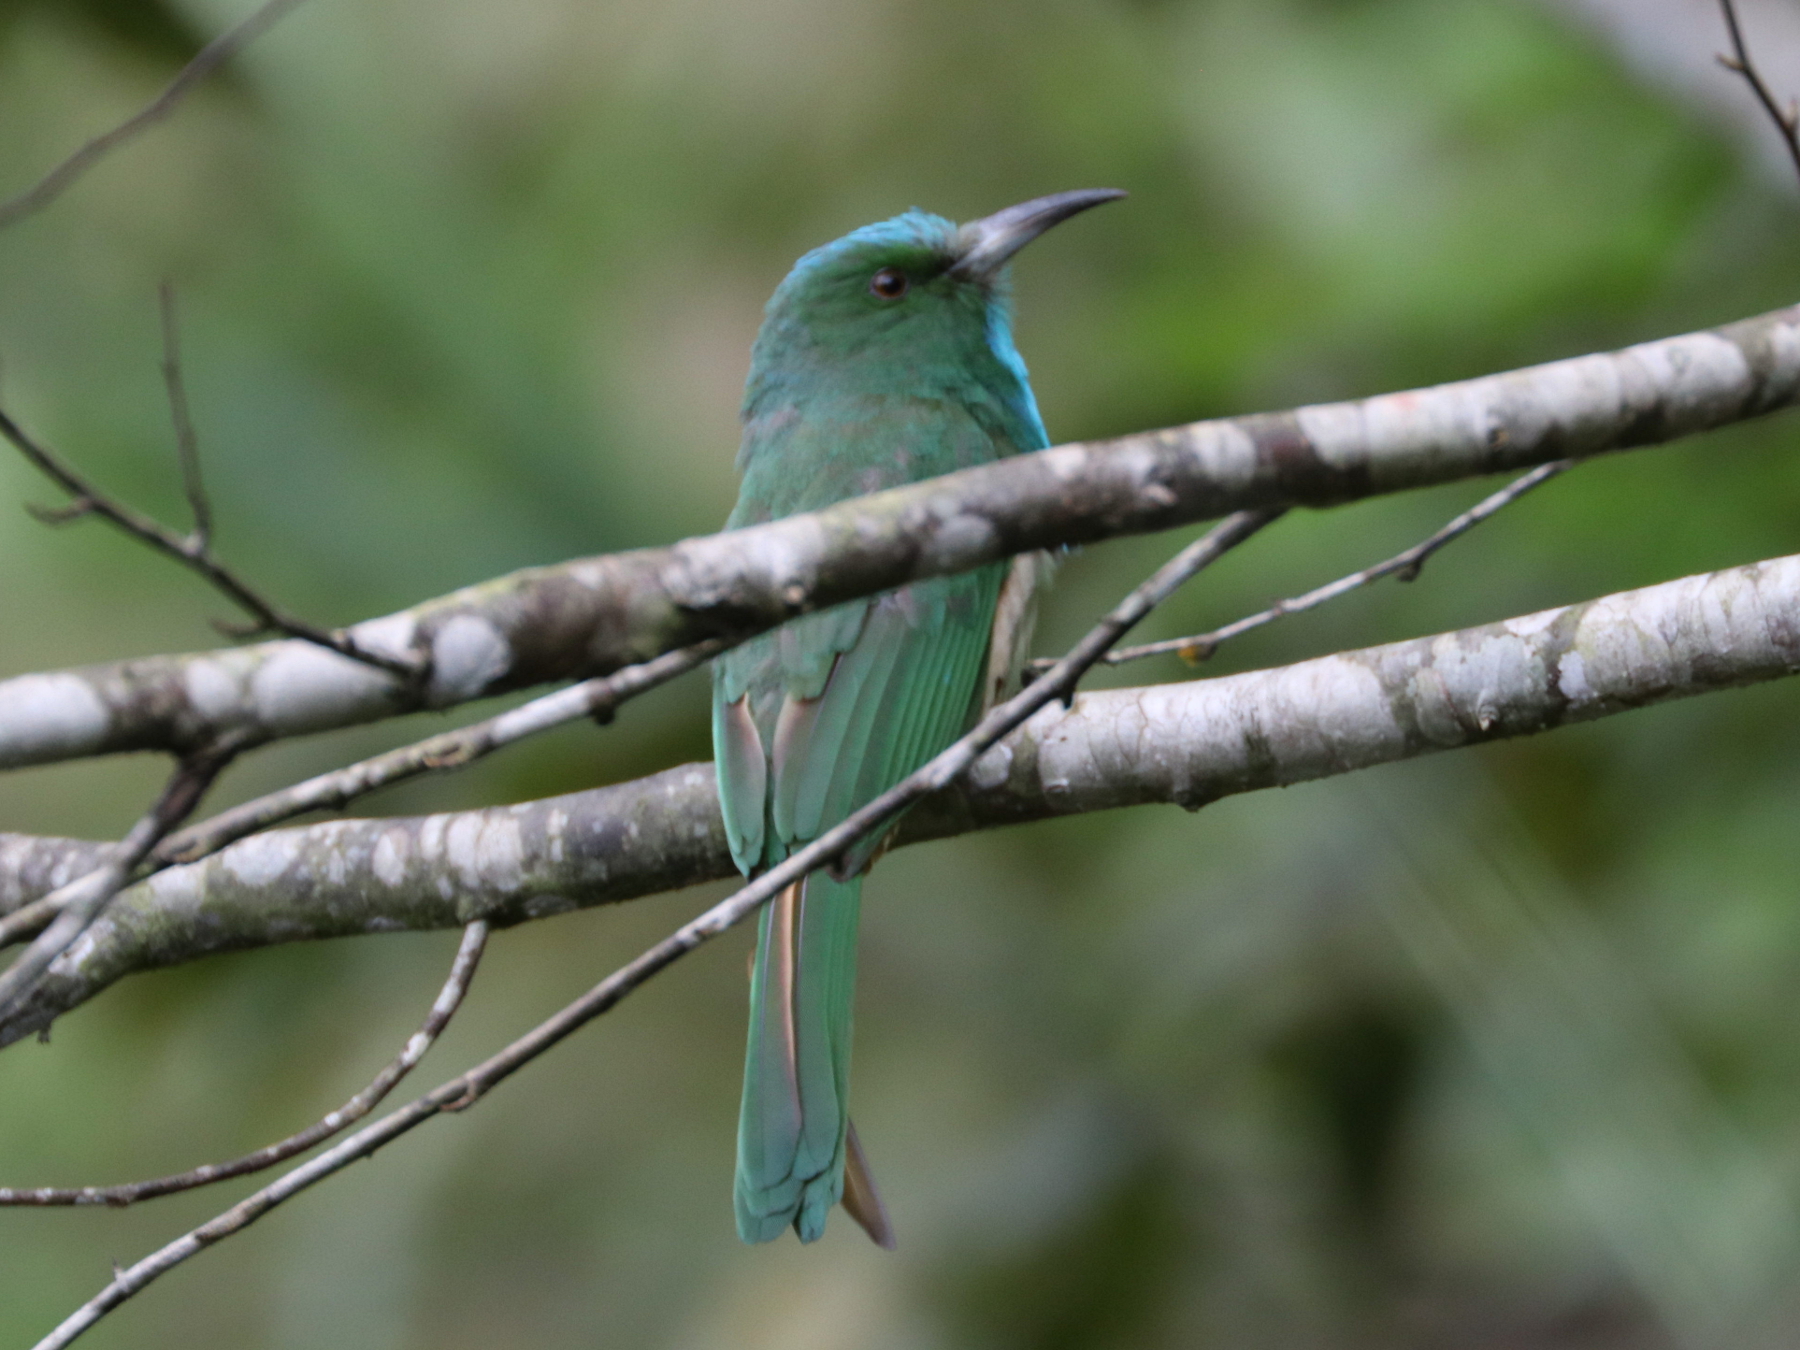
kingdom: Animalia
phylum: Chordata
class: Aves
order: Coraciiformes
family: Meropidae
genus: Nyctyornis
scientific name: Nyctyornis athertoni
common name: Blue-bearded bee-eater
